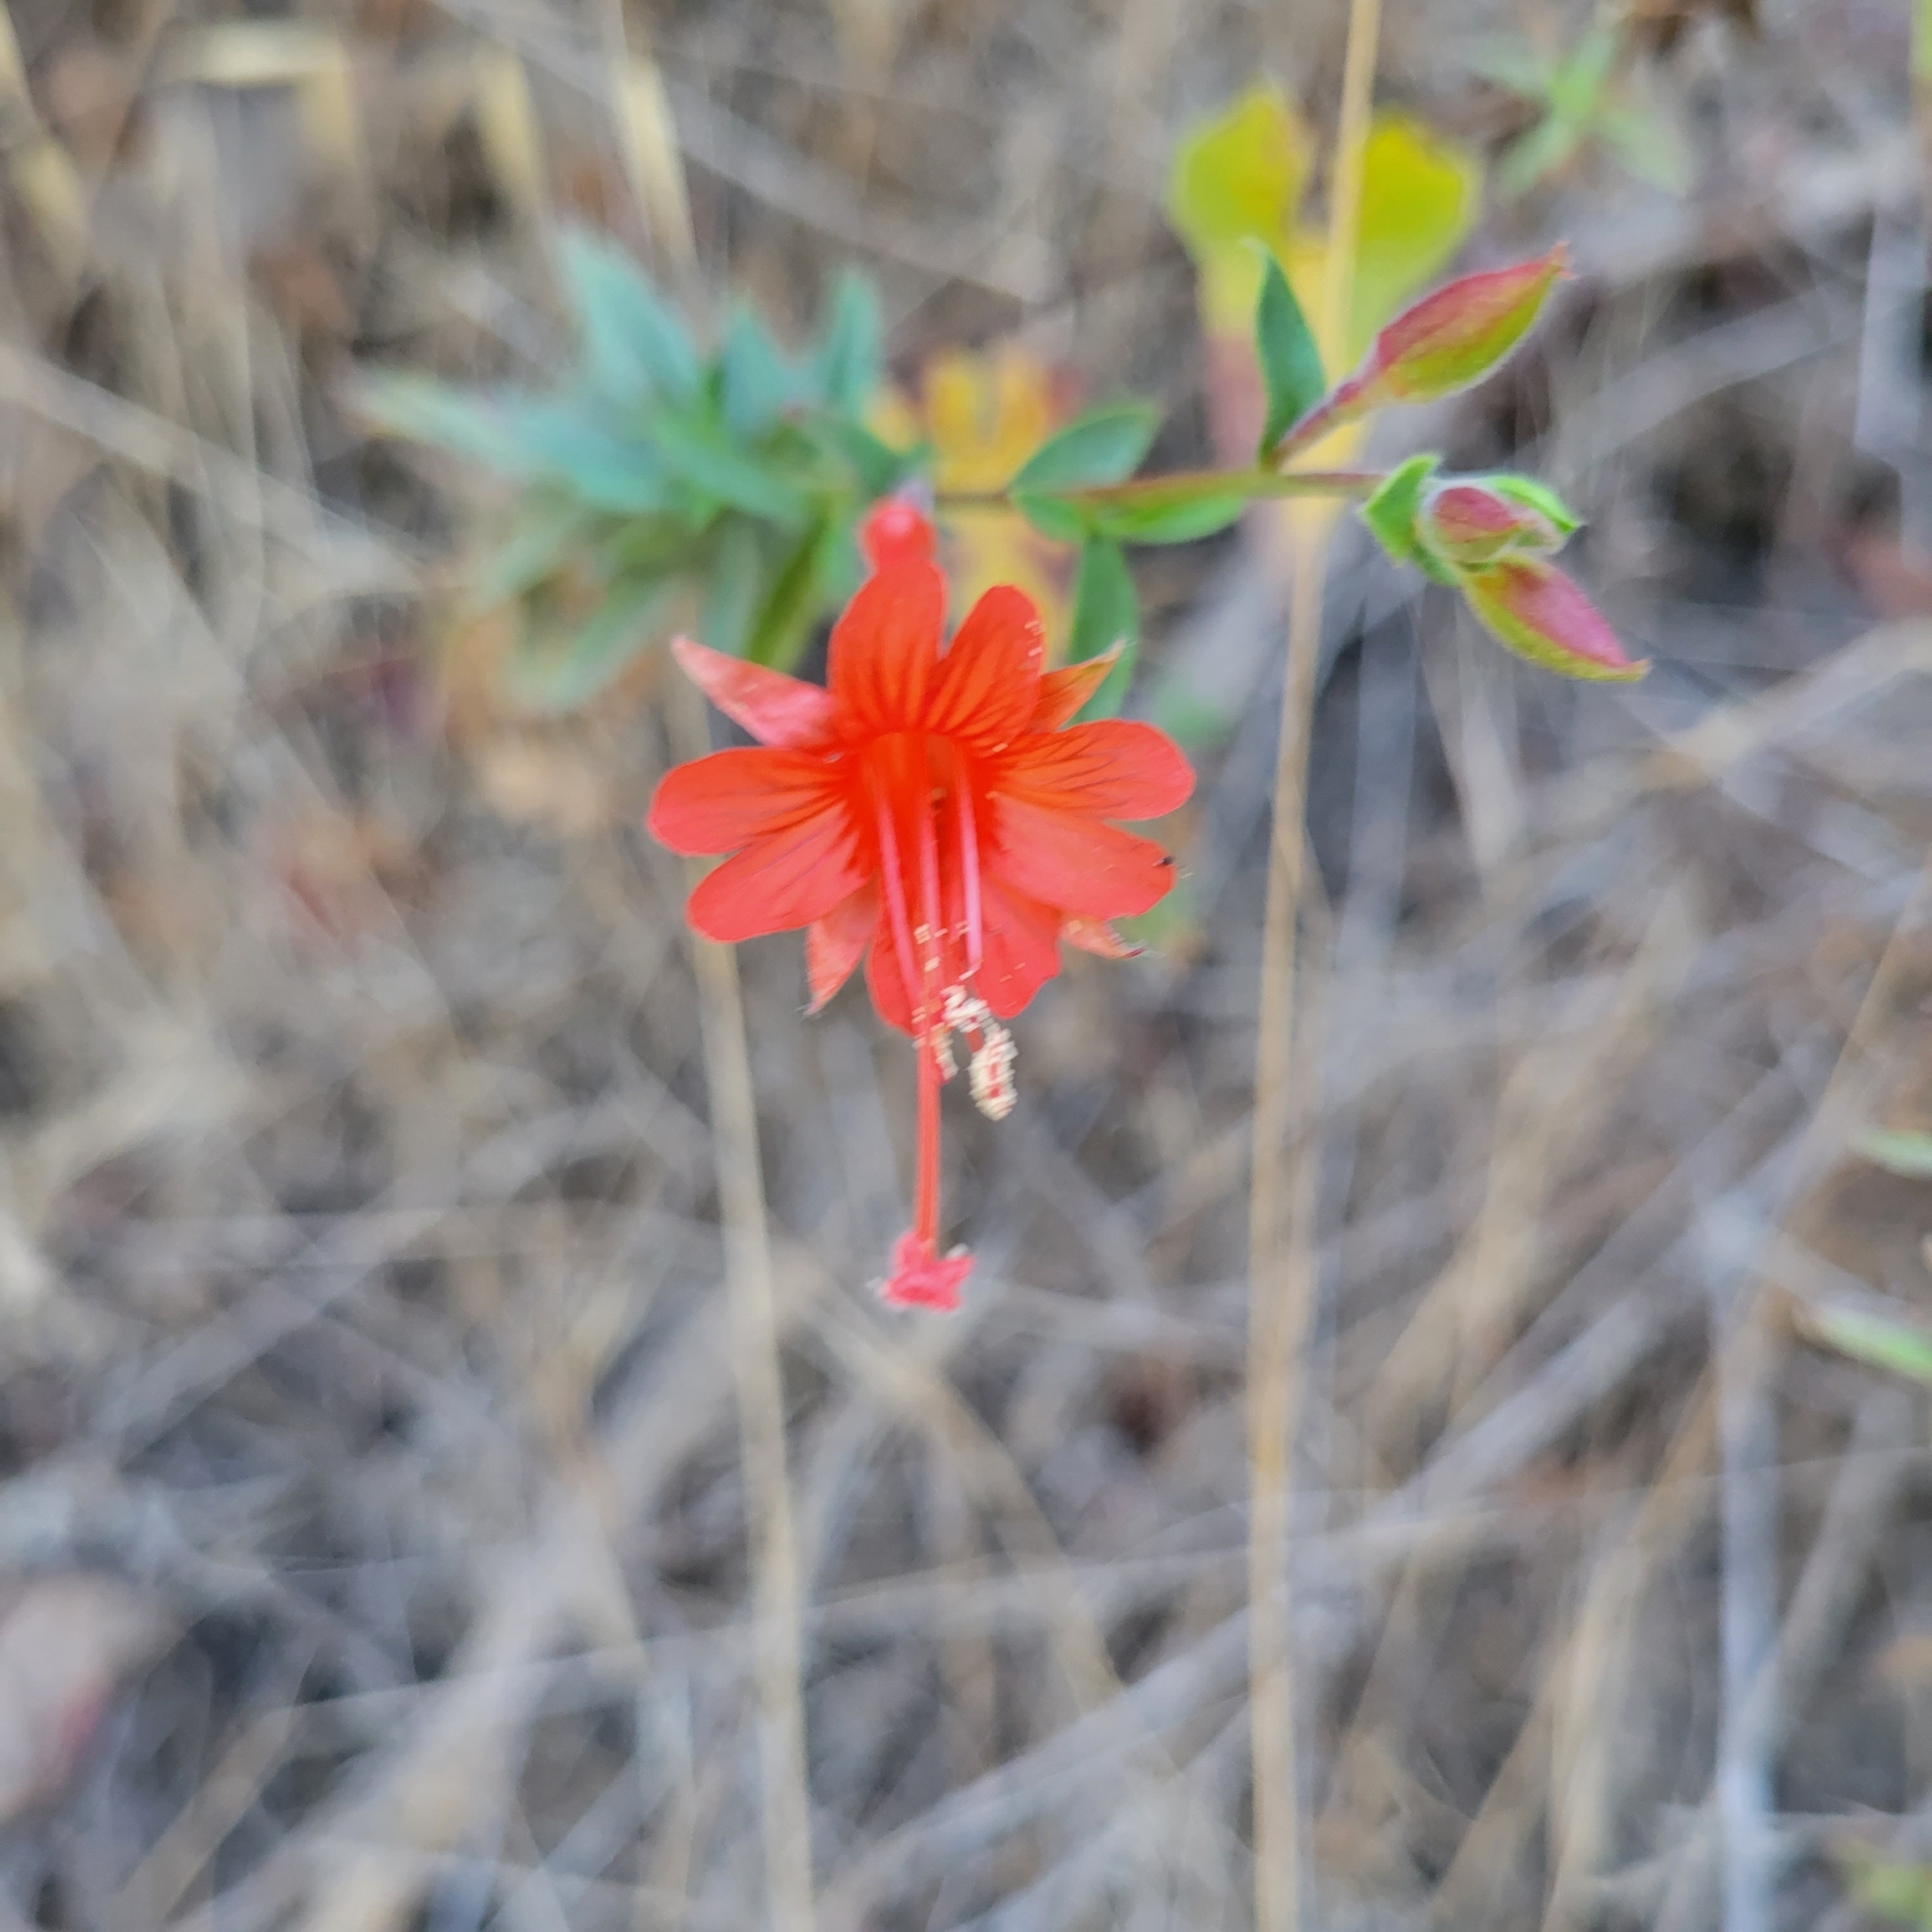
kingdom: Plantae
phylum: Tracheophyta
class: Magnoliopsida
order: Myrtales
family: Onagraceae
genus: Epilobium
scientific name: Epilobium canum
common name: California-fuchsia
